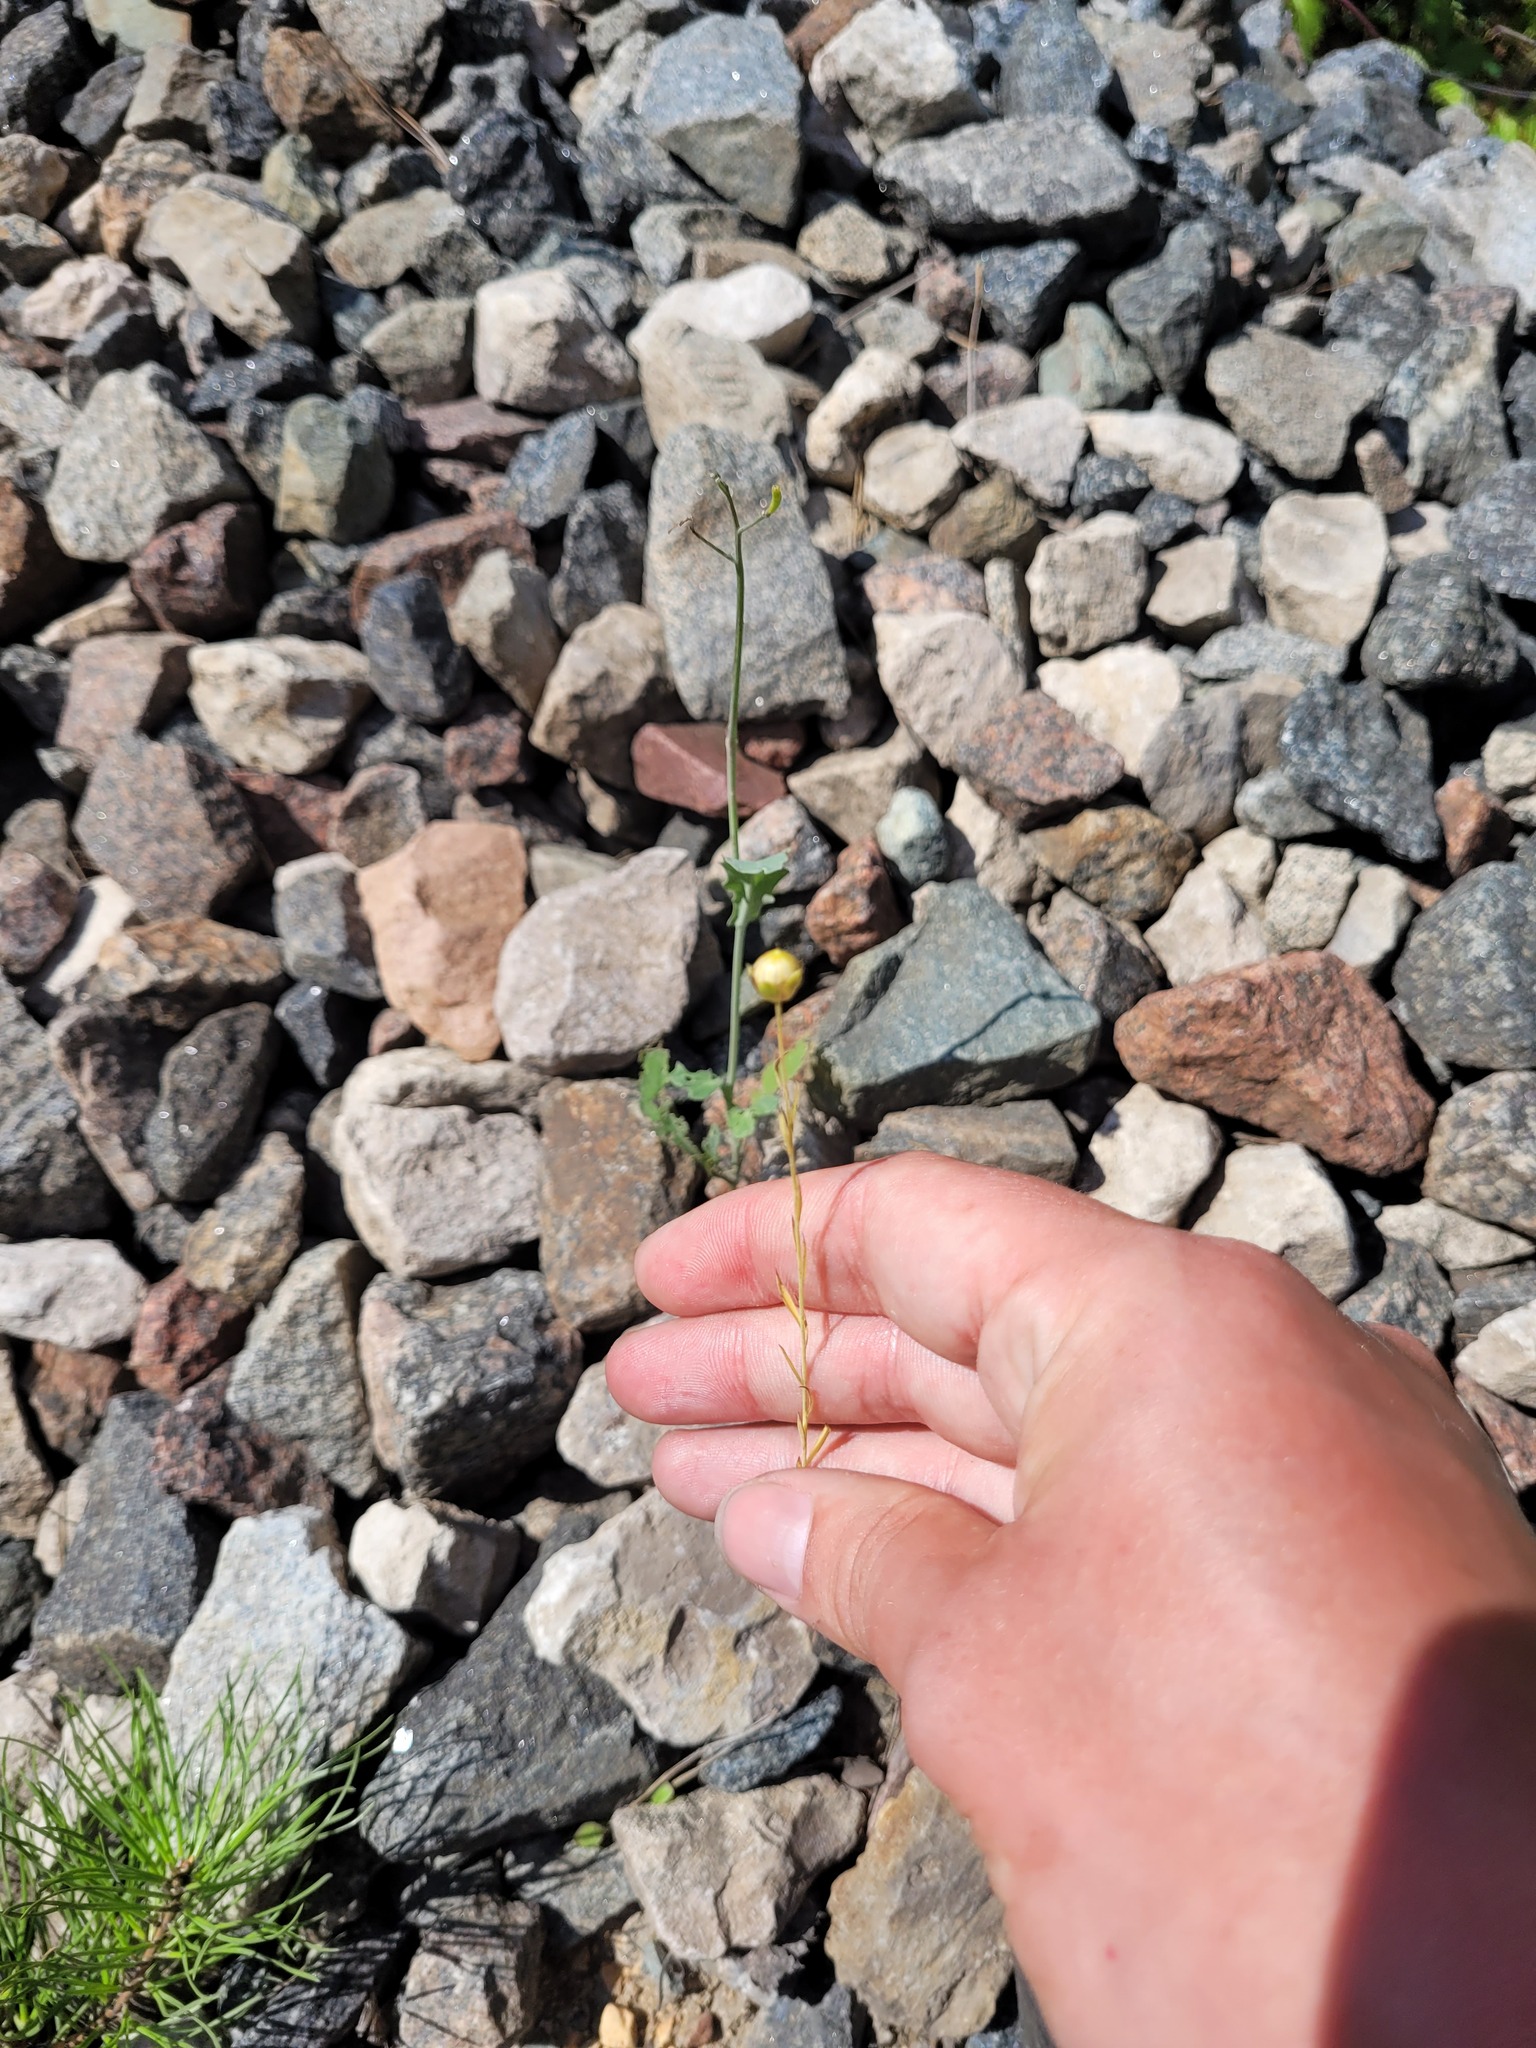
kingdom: Plantae
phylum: Tracheophyta
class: Magnoliopsida
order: Malpighiales
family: Linaceae
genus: Linum
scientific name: Linum usitatissimum
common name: Flax
